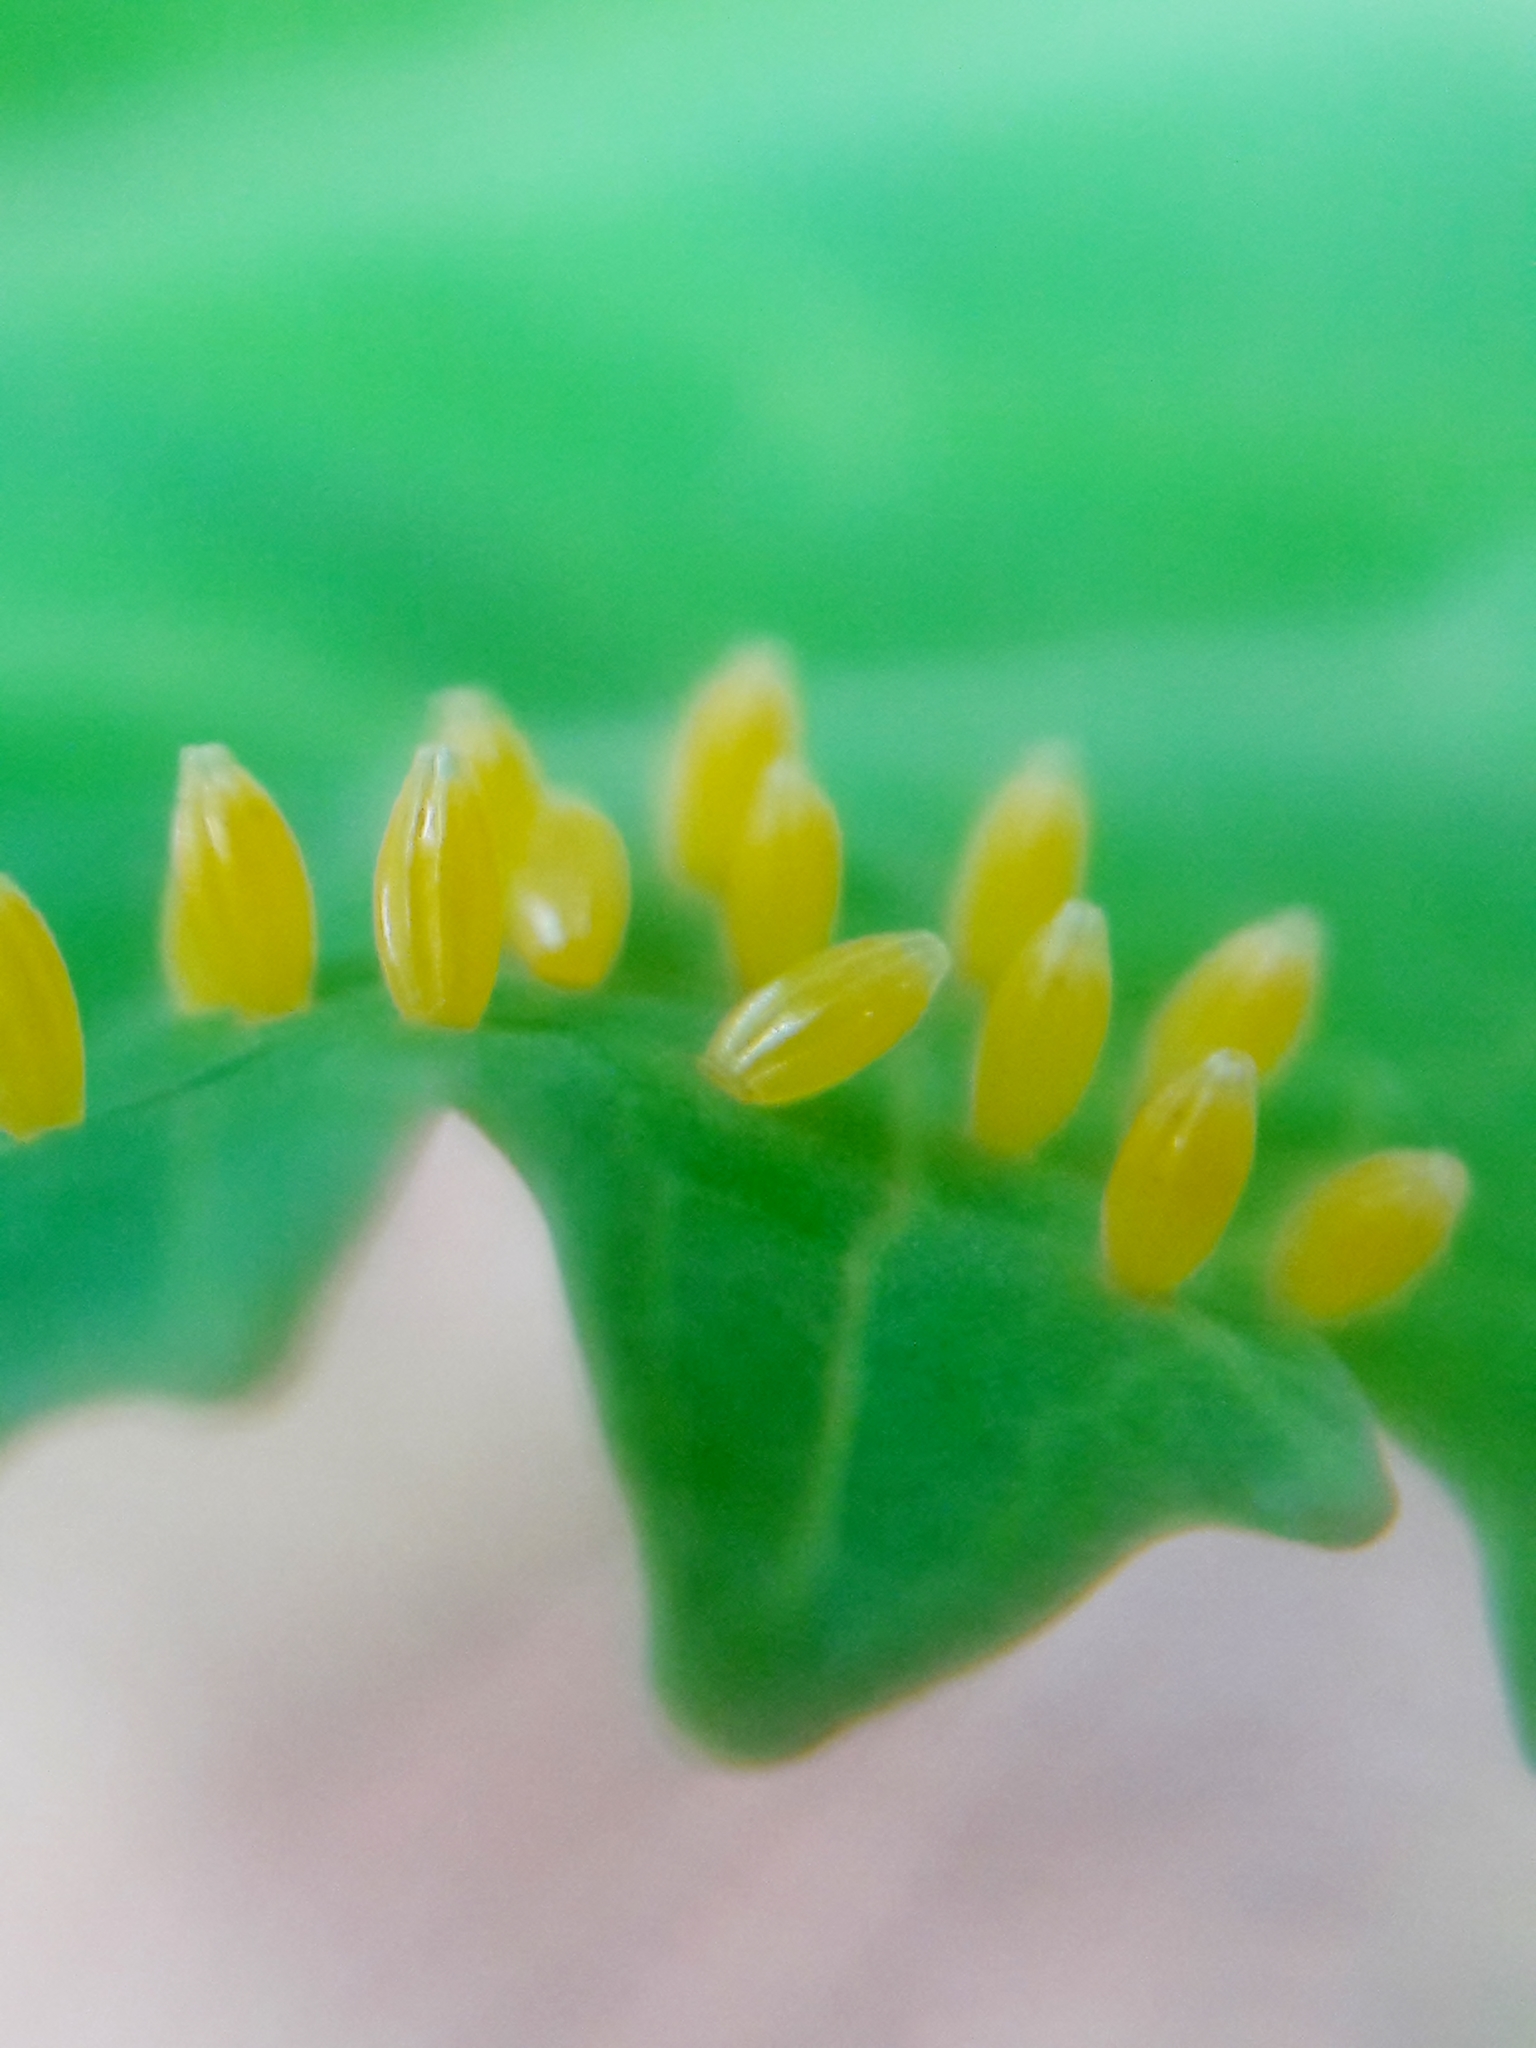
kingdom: Animalia
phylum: Arthropoda
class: Insecta
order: Lepidoptera
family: Pieridae
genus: Ascia
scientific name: Ascia monuste
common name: Great southern white
